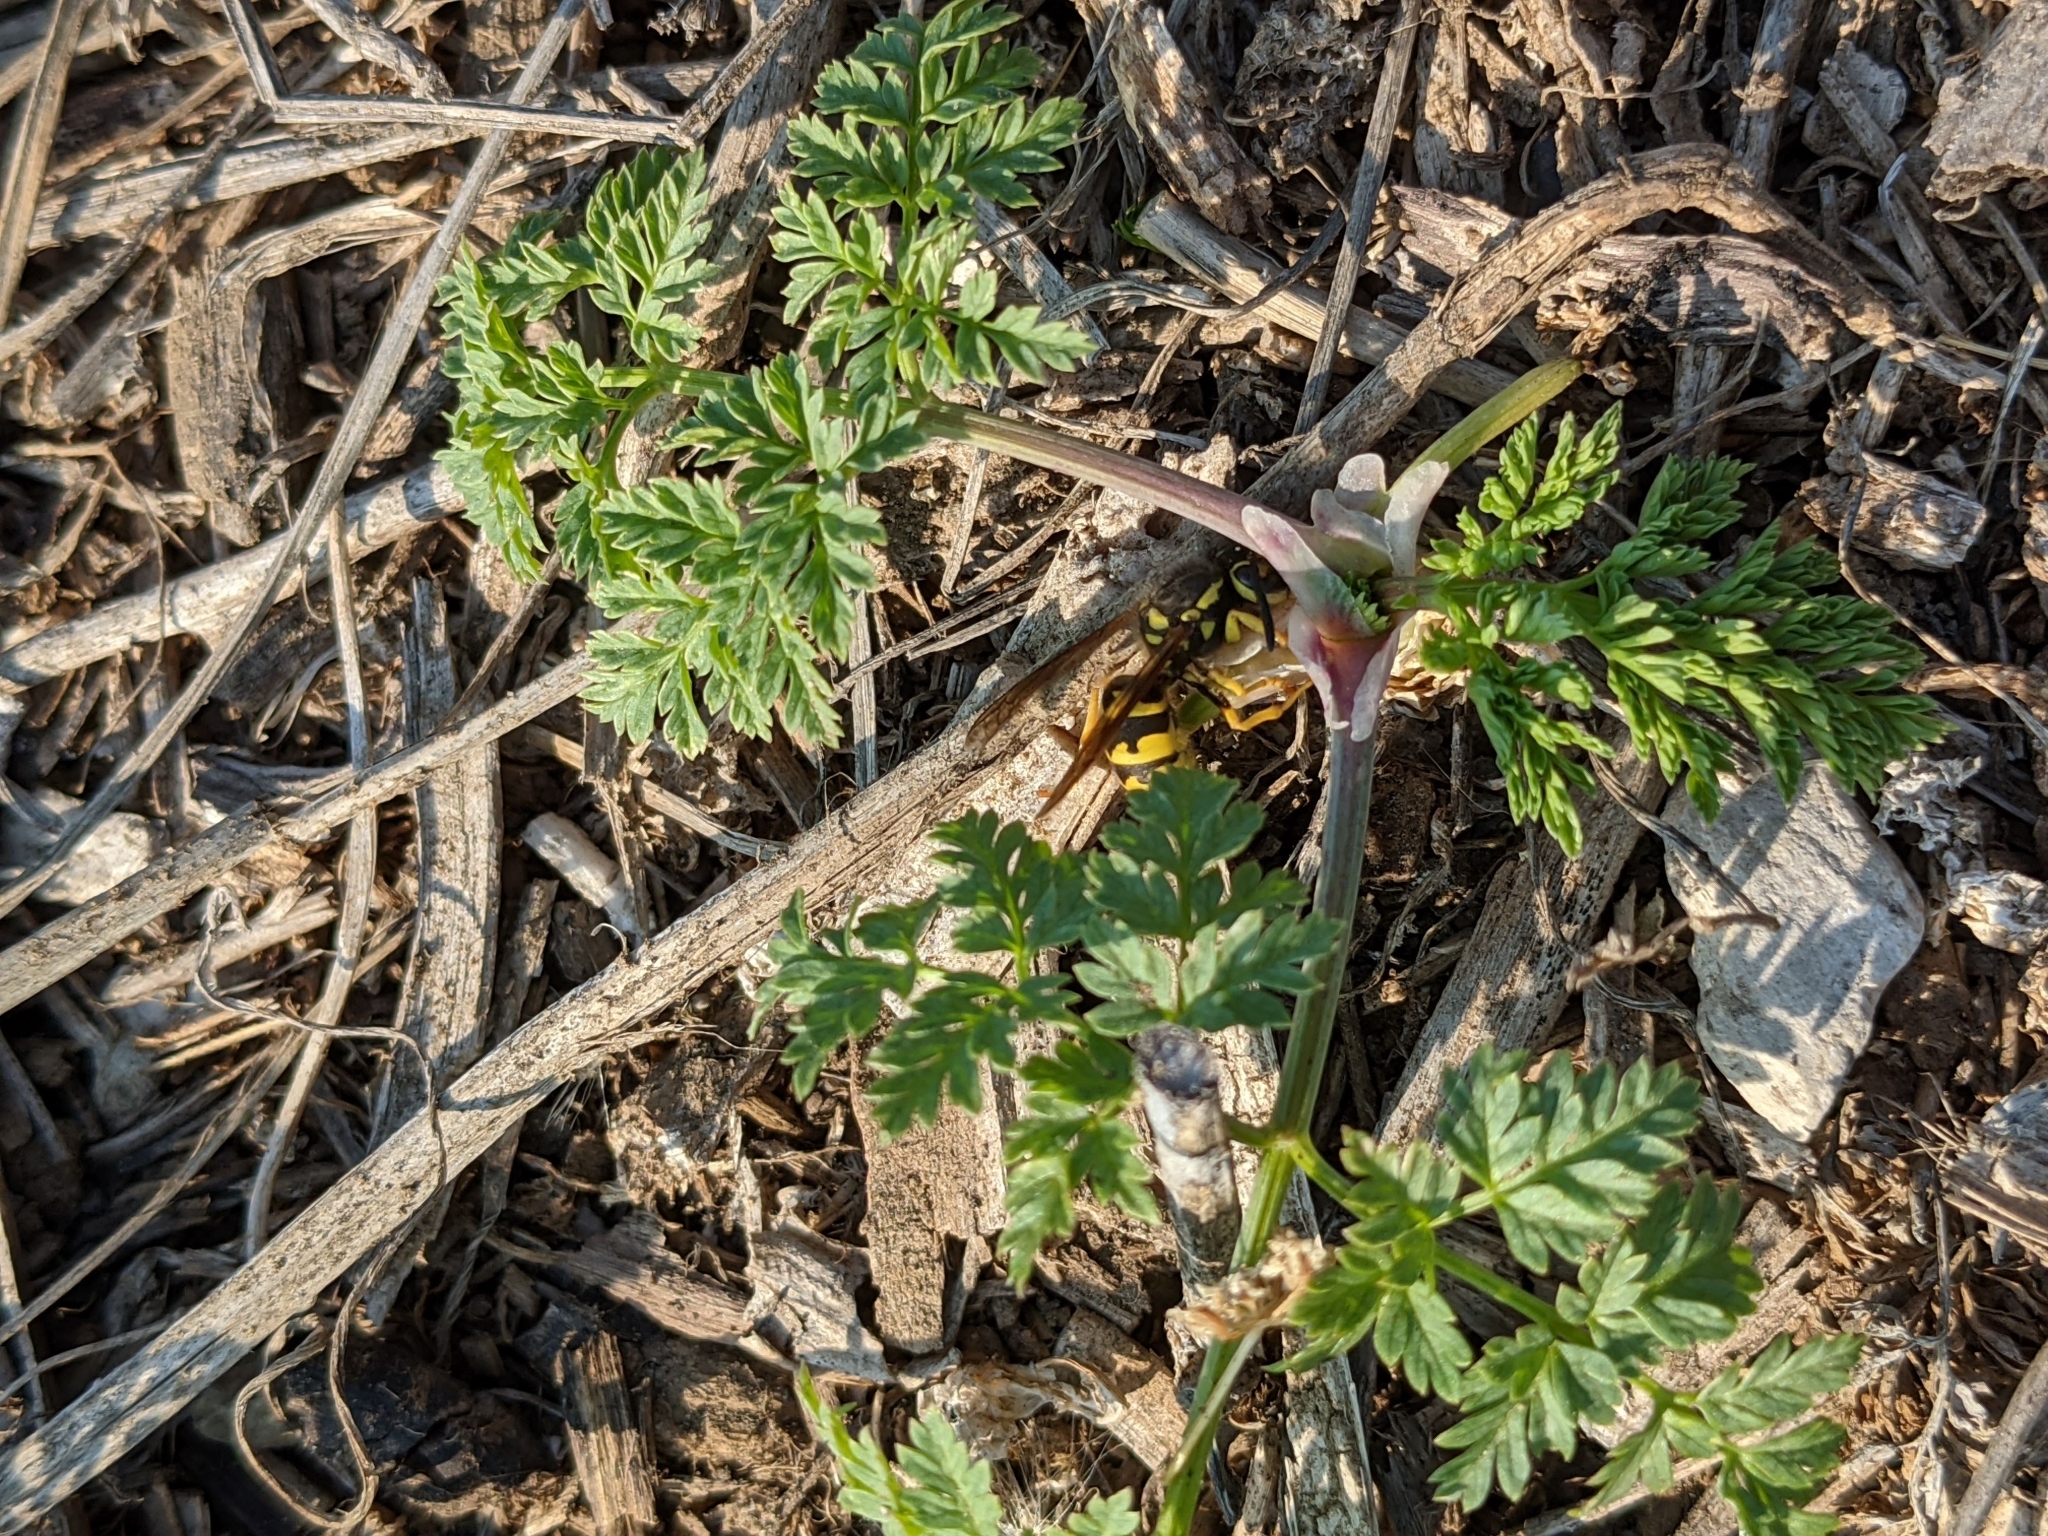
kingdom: Animalia
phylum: Arthropoda
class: Insecta
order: Hymenoptera
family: Vespidae
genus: Vespula
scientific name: Vespula pensylvanica
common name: Western yellowjacket
